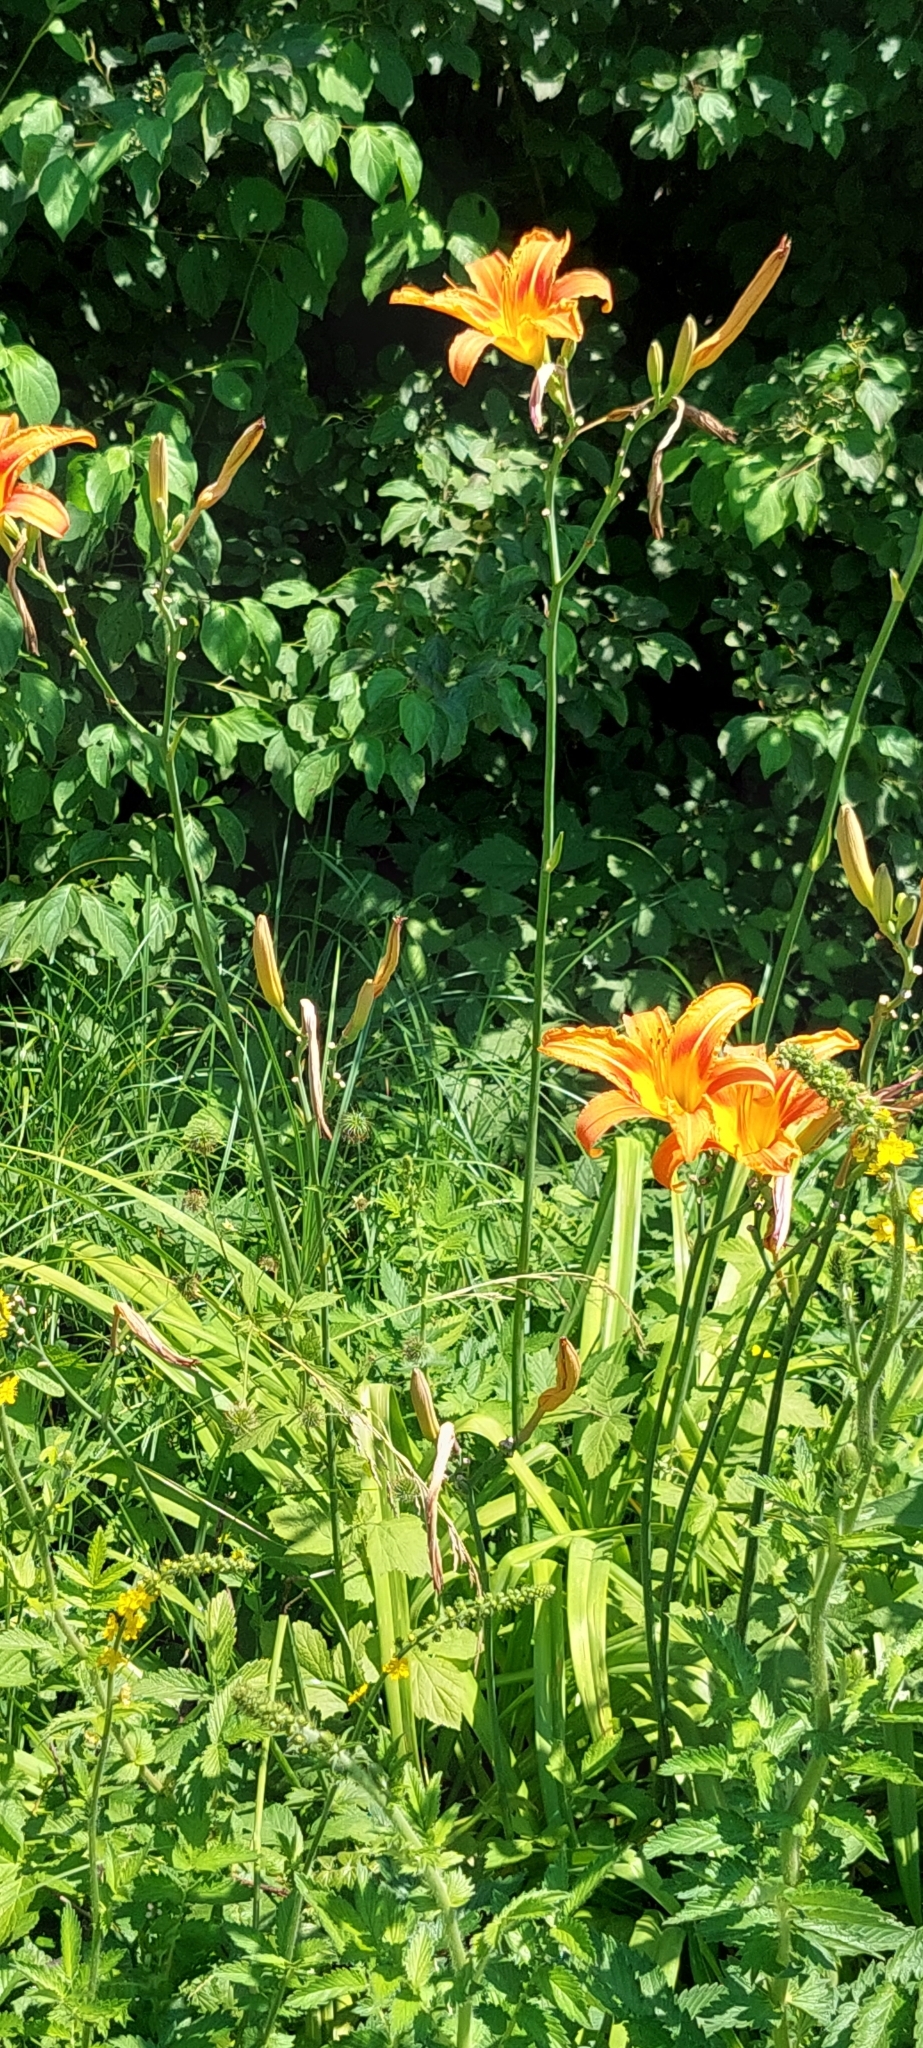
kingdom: Plantae
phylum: Tracheophyta
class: Liliopsida
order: Asparagales
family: Asphodelaceae
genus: Hemerocallis
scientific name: Hemerocallis fulva
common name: Orange day-lily
